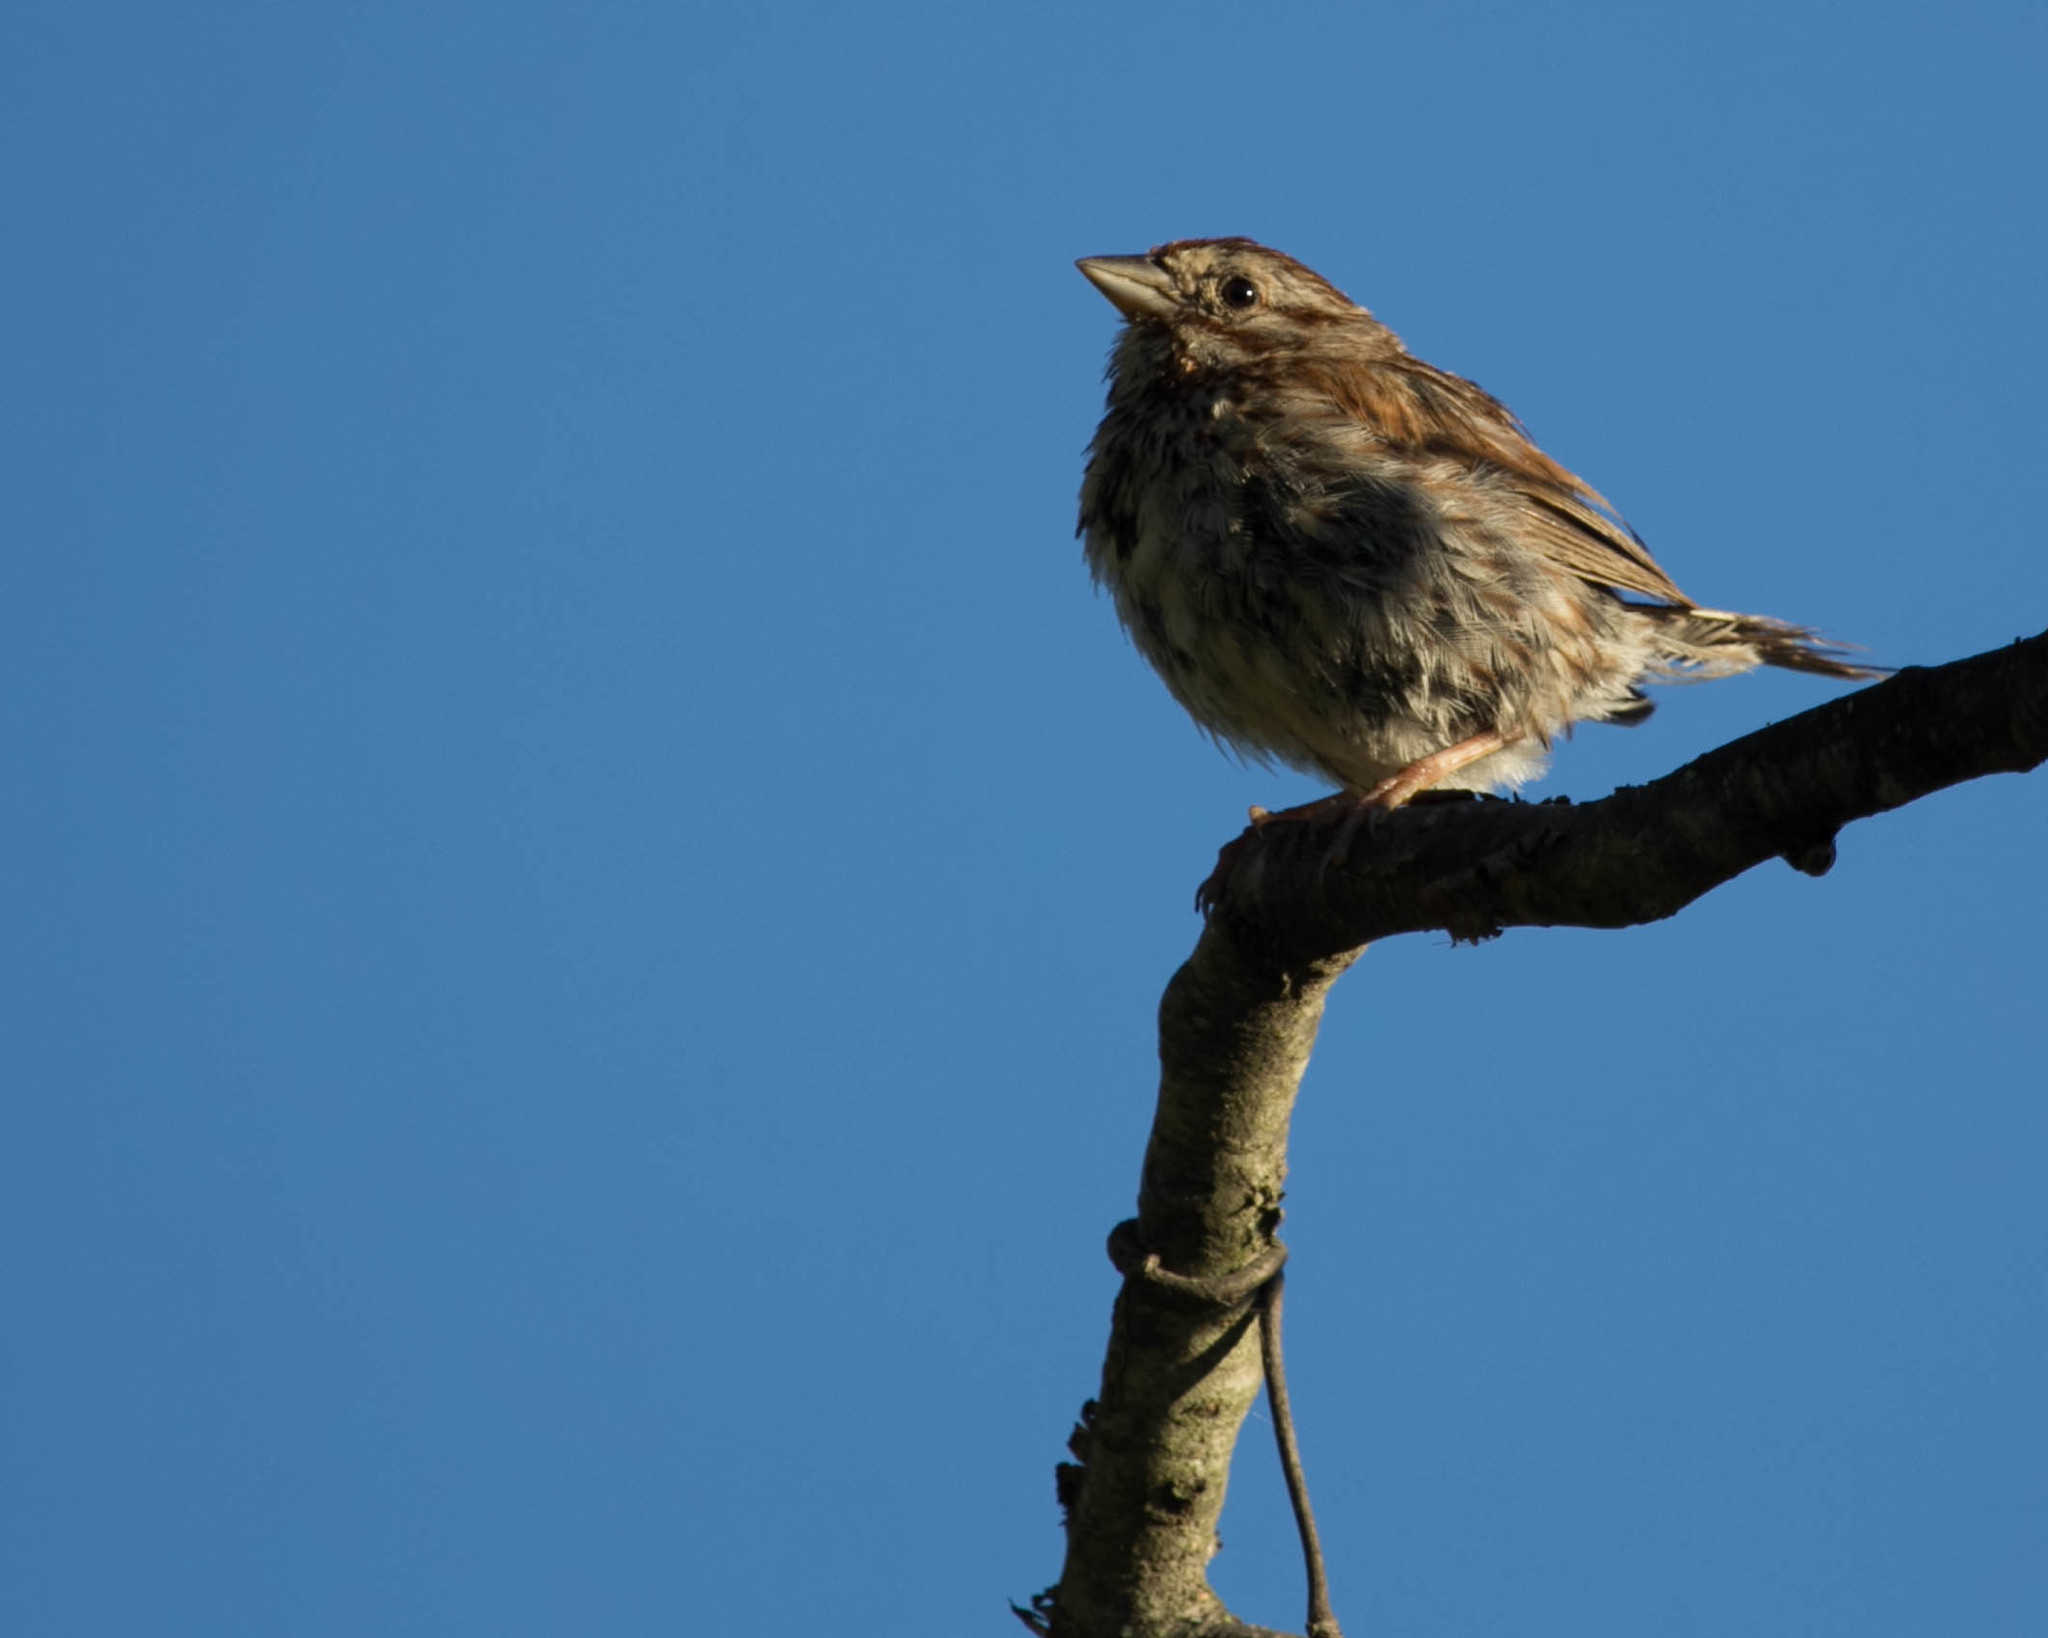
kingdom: Animalia
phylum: Chordata
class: Aves
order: Passeriformes
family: Passerellidae
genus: Melospiza
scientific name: Melospiza melodia
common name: Song sparrow
